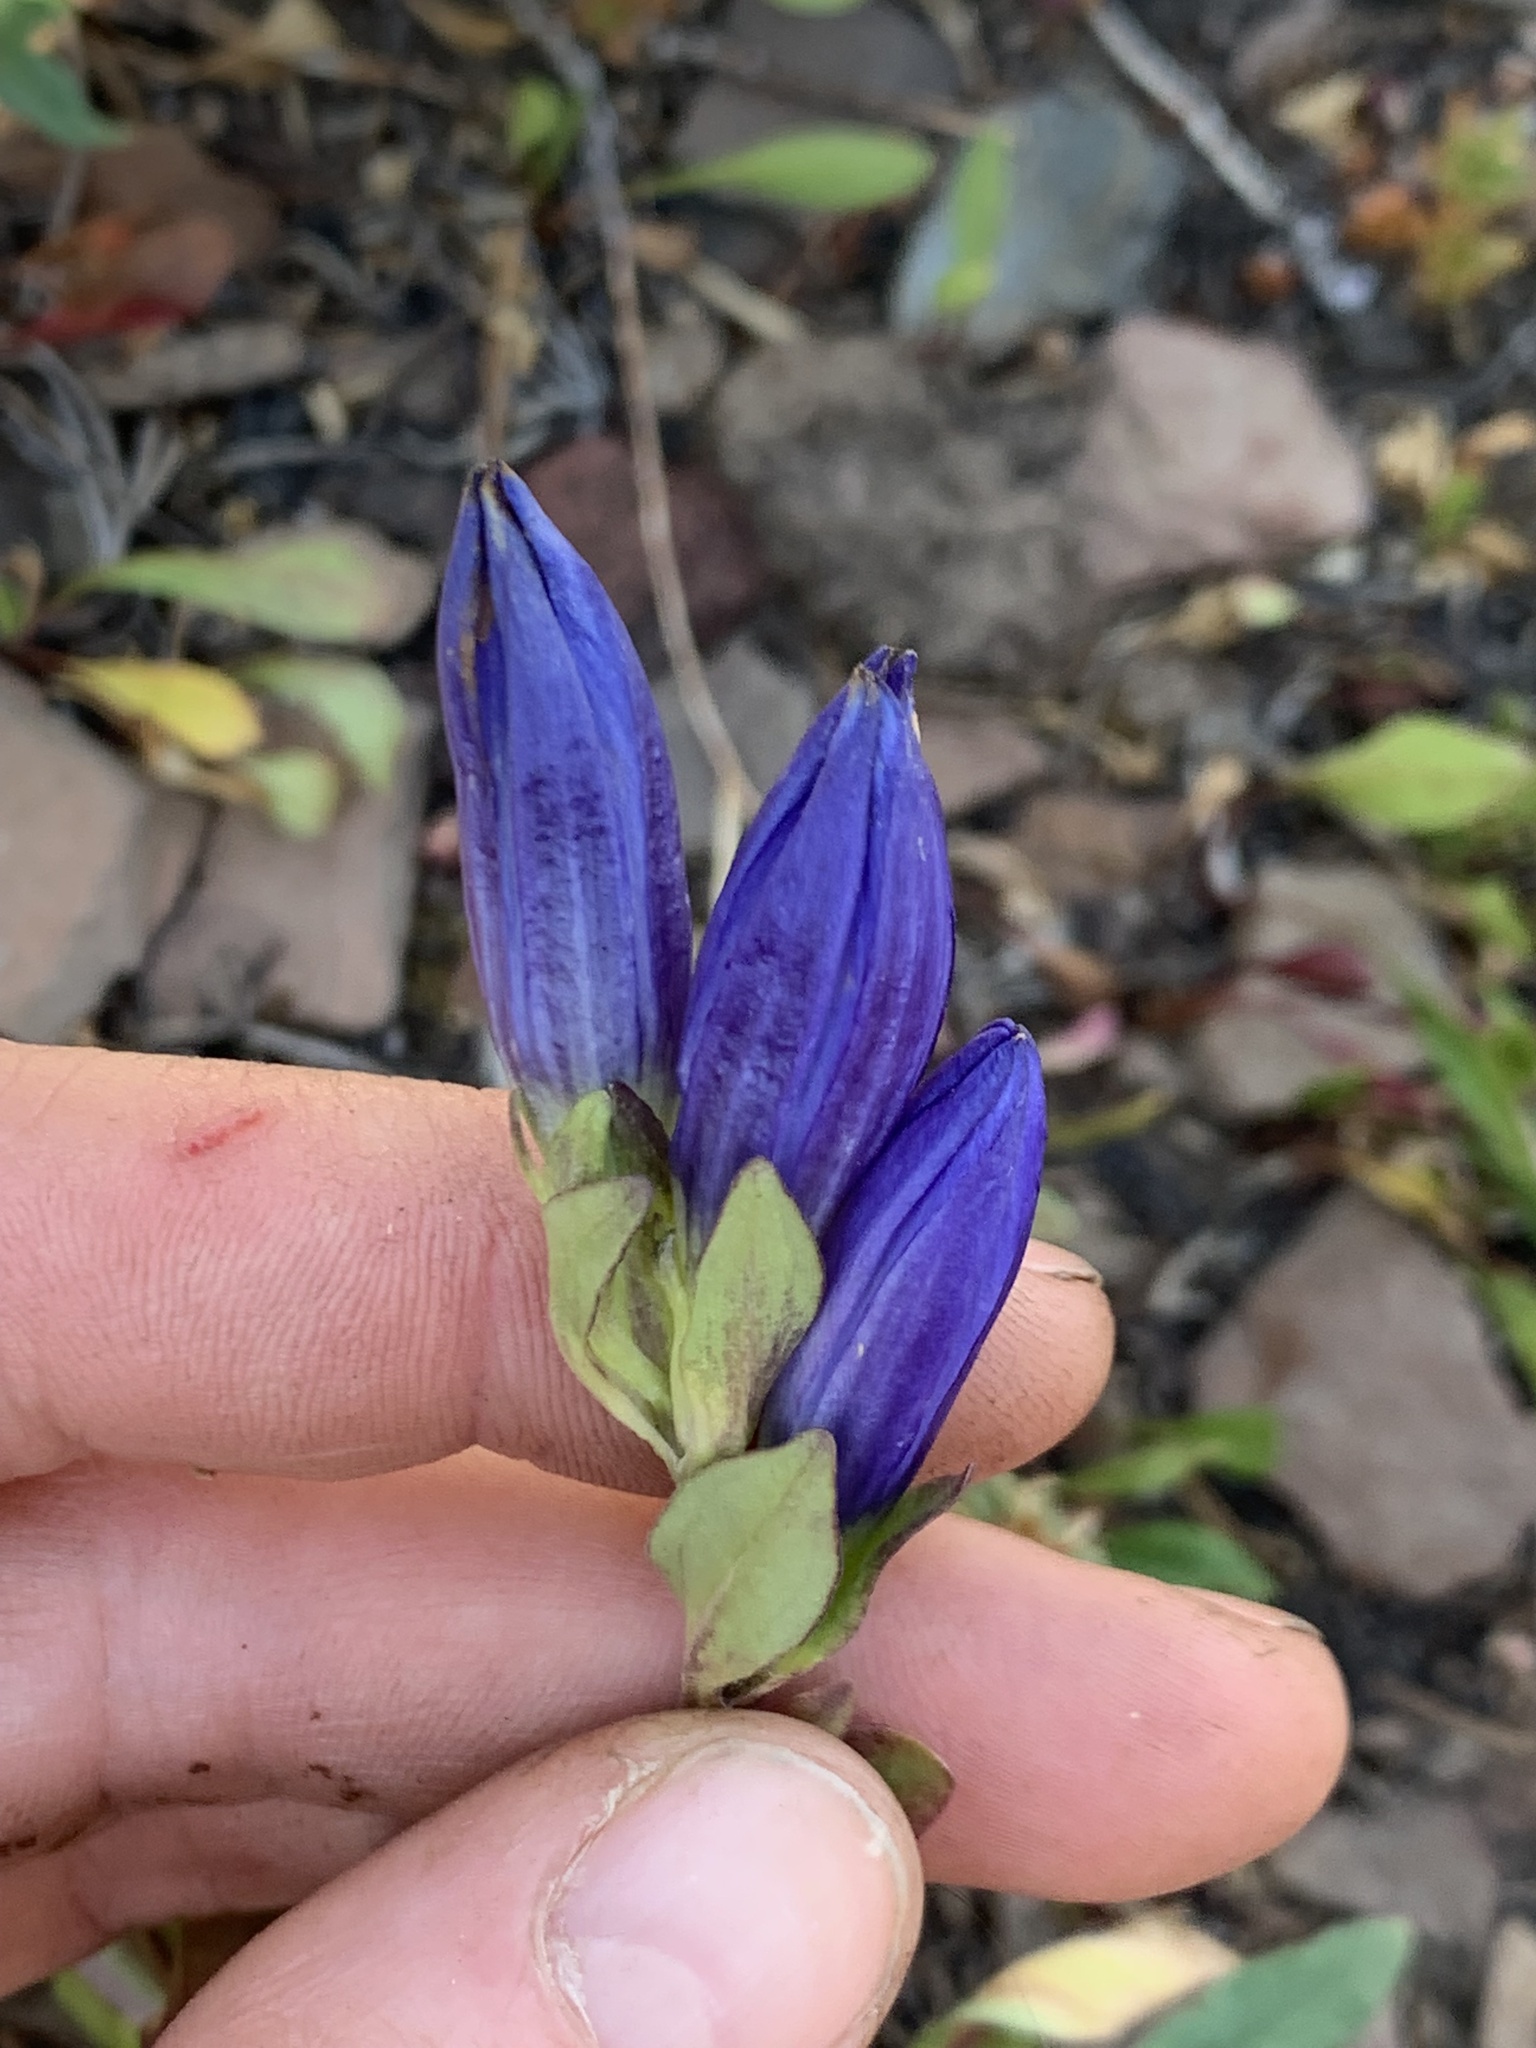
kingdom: Plantae
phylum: Tracheophyta
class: Magnoliopsida
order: Gentianales
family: Gentianaceae
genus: Gentiana
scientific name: Gentiana affinis
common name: Rocky mountain gentian
